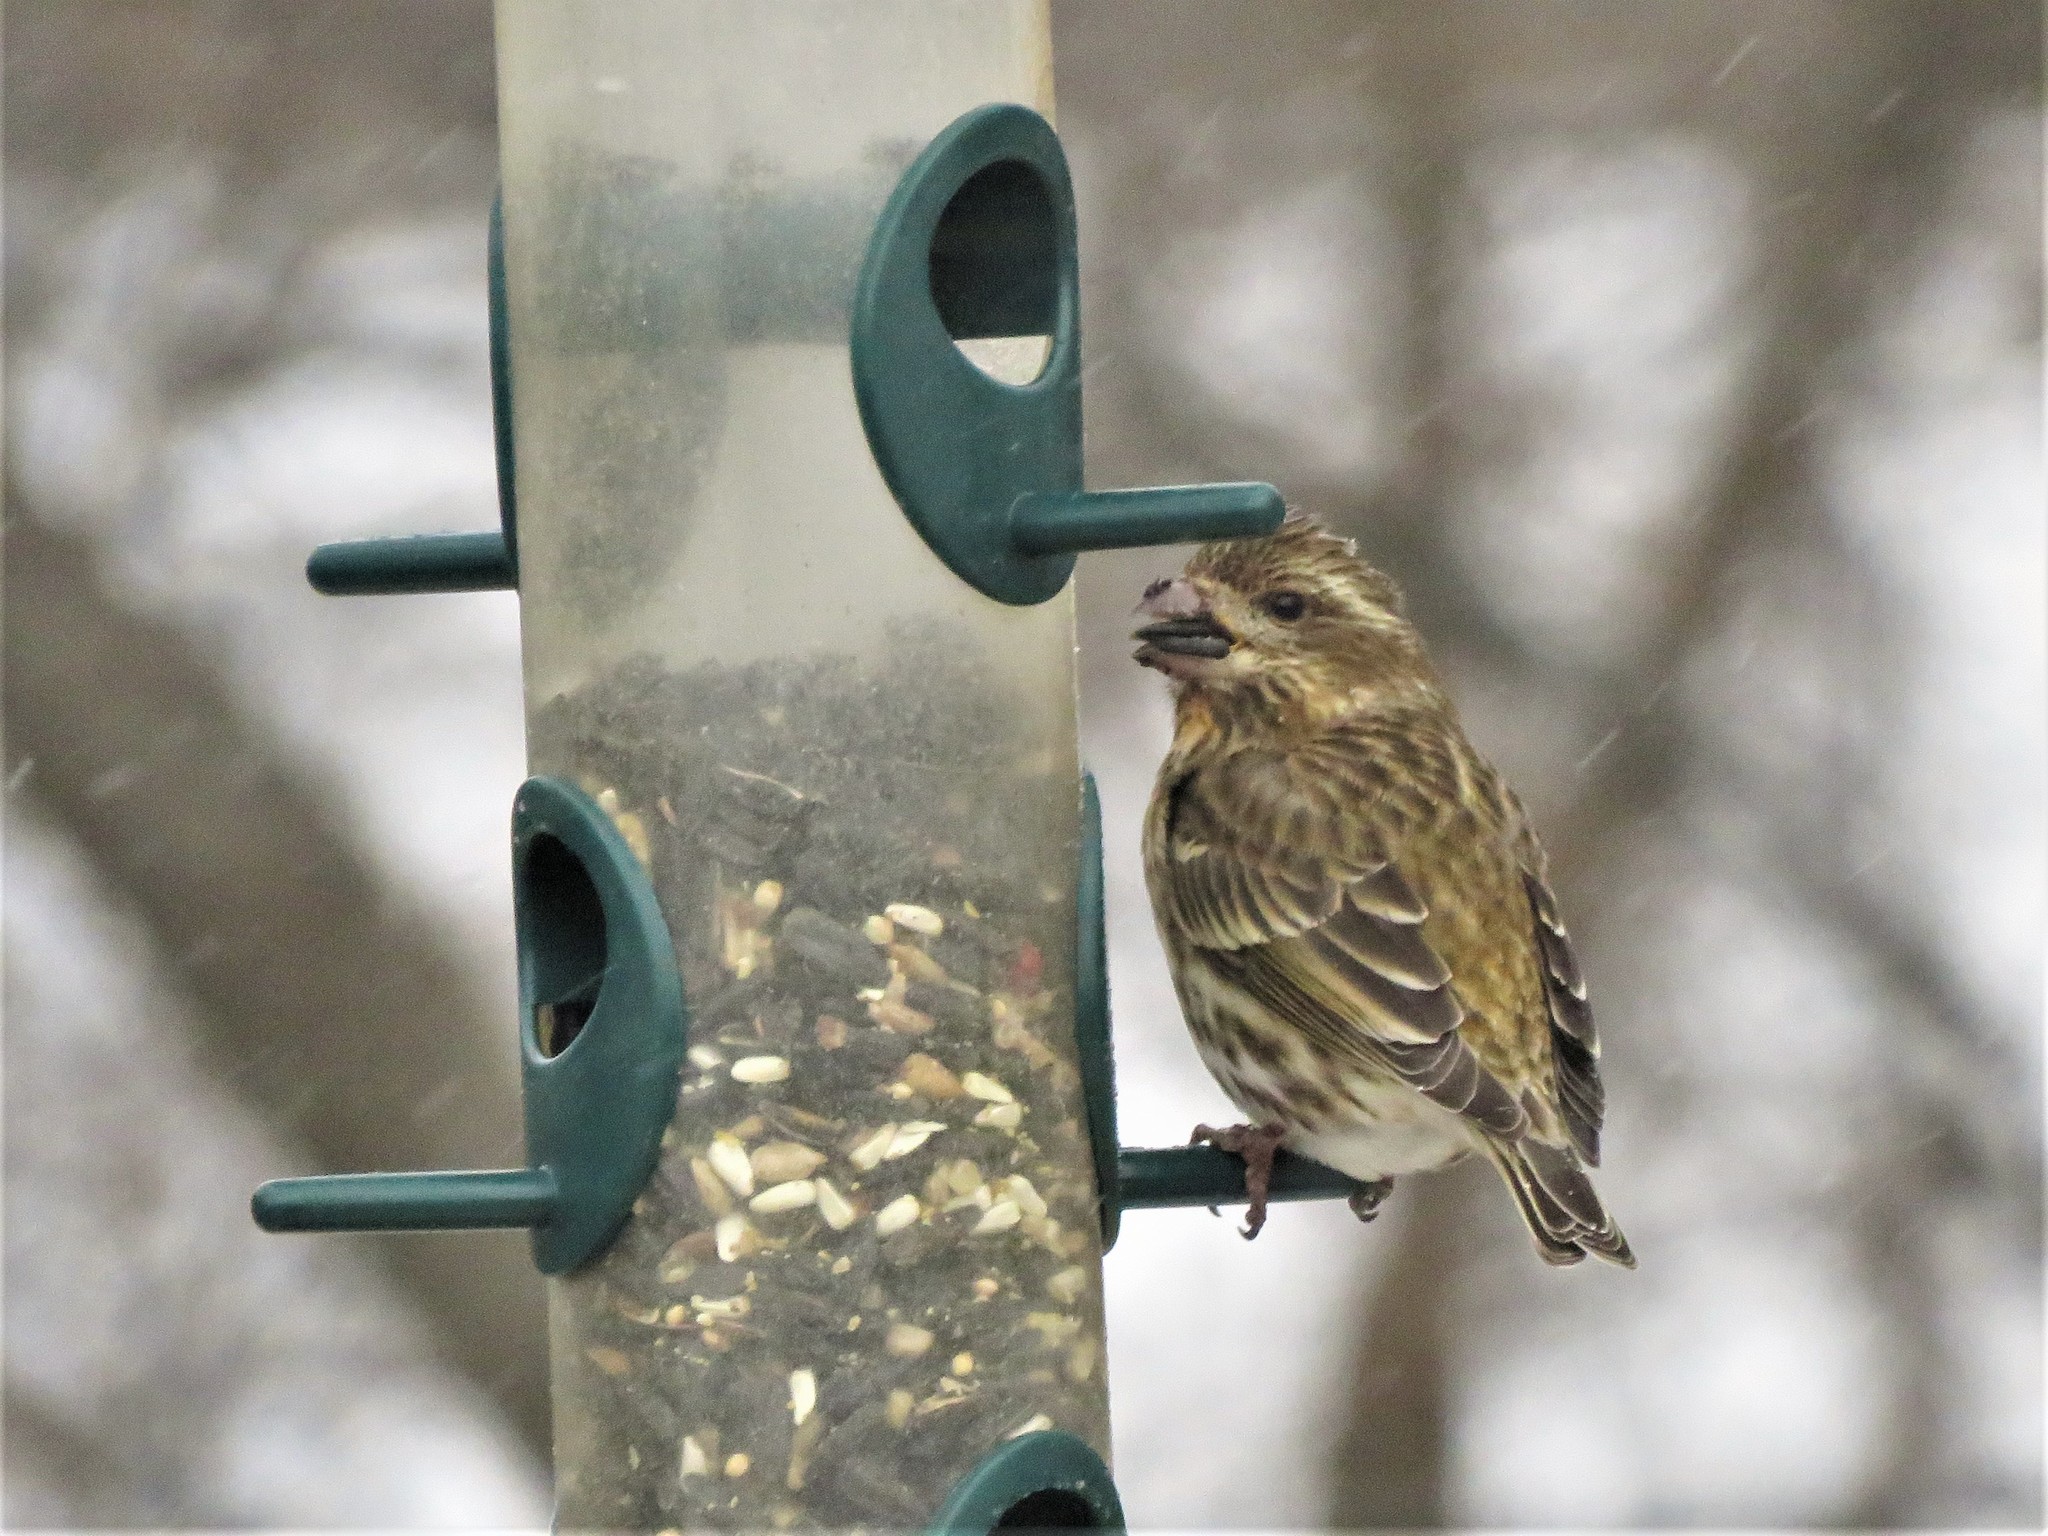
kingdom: Animalia
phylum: Chordata
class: Aves
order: Passeriformes
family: Fringillidae
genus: Haemorhous
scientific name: Haemorhous purpureus
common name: Purple finch
